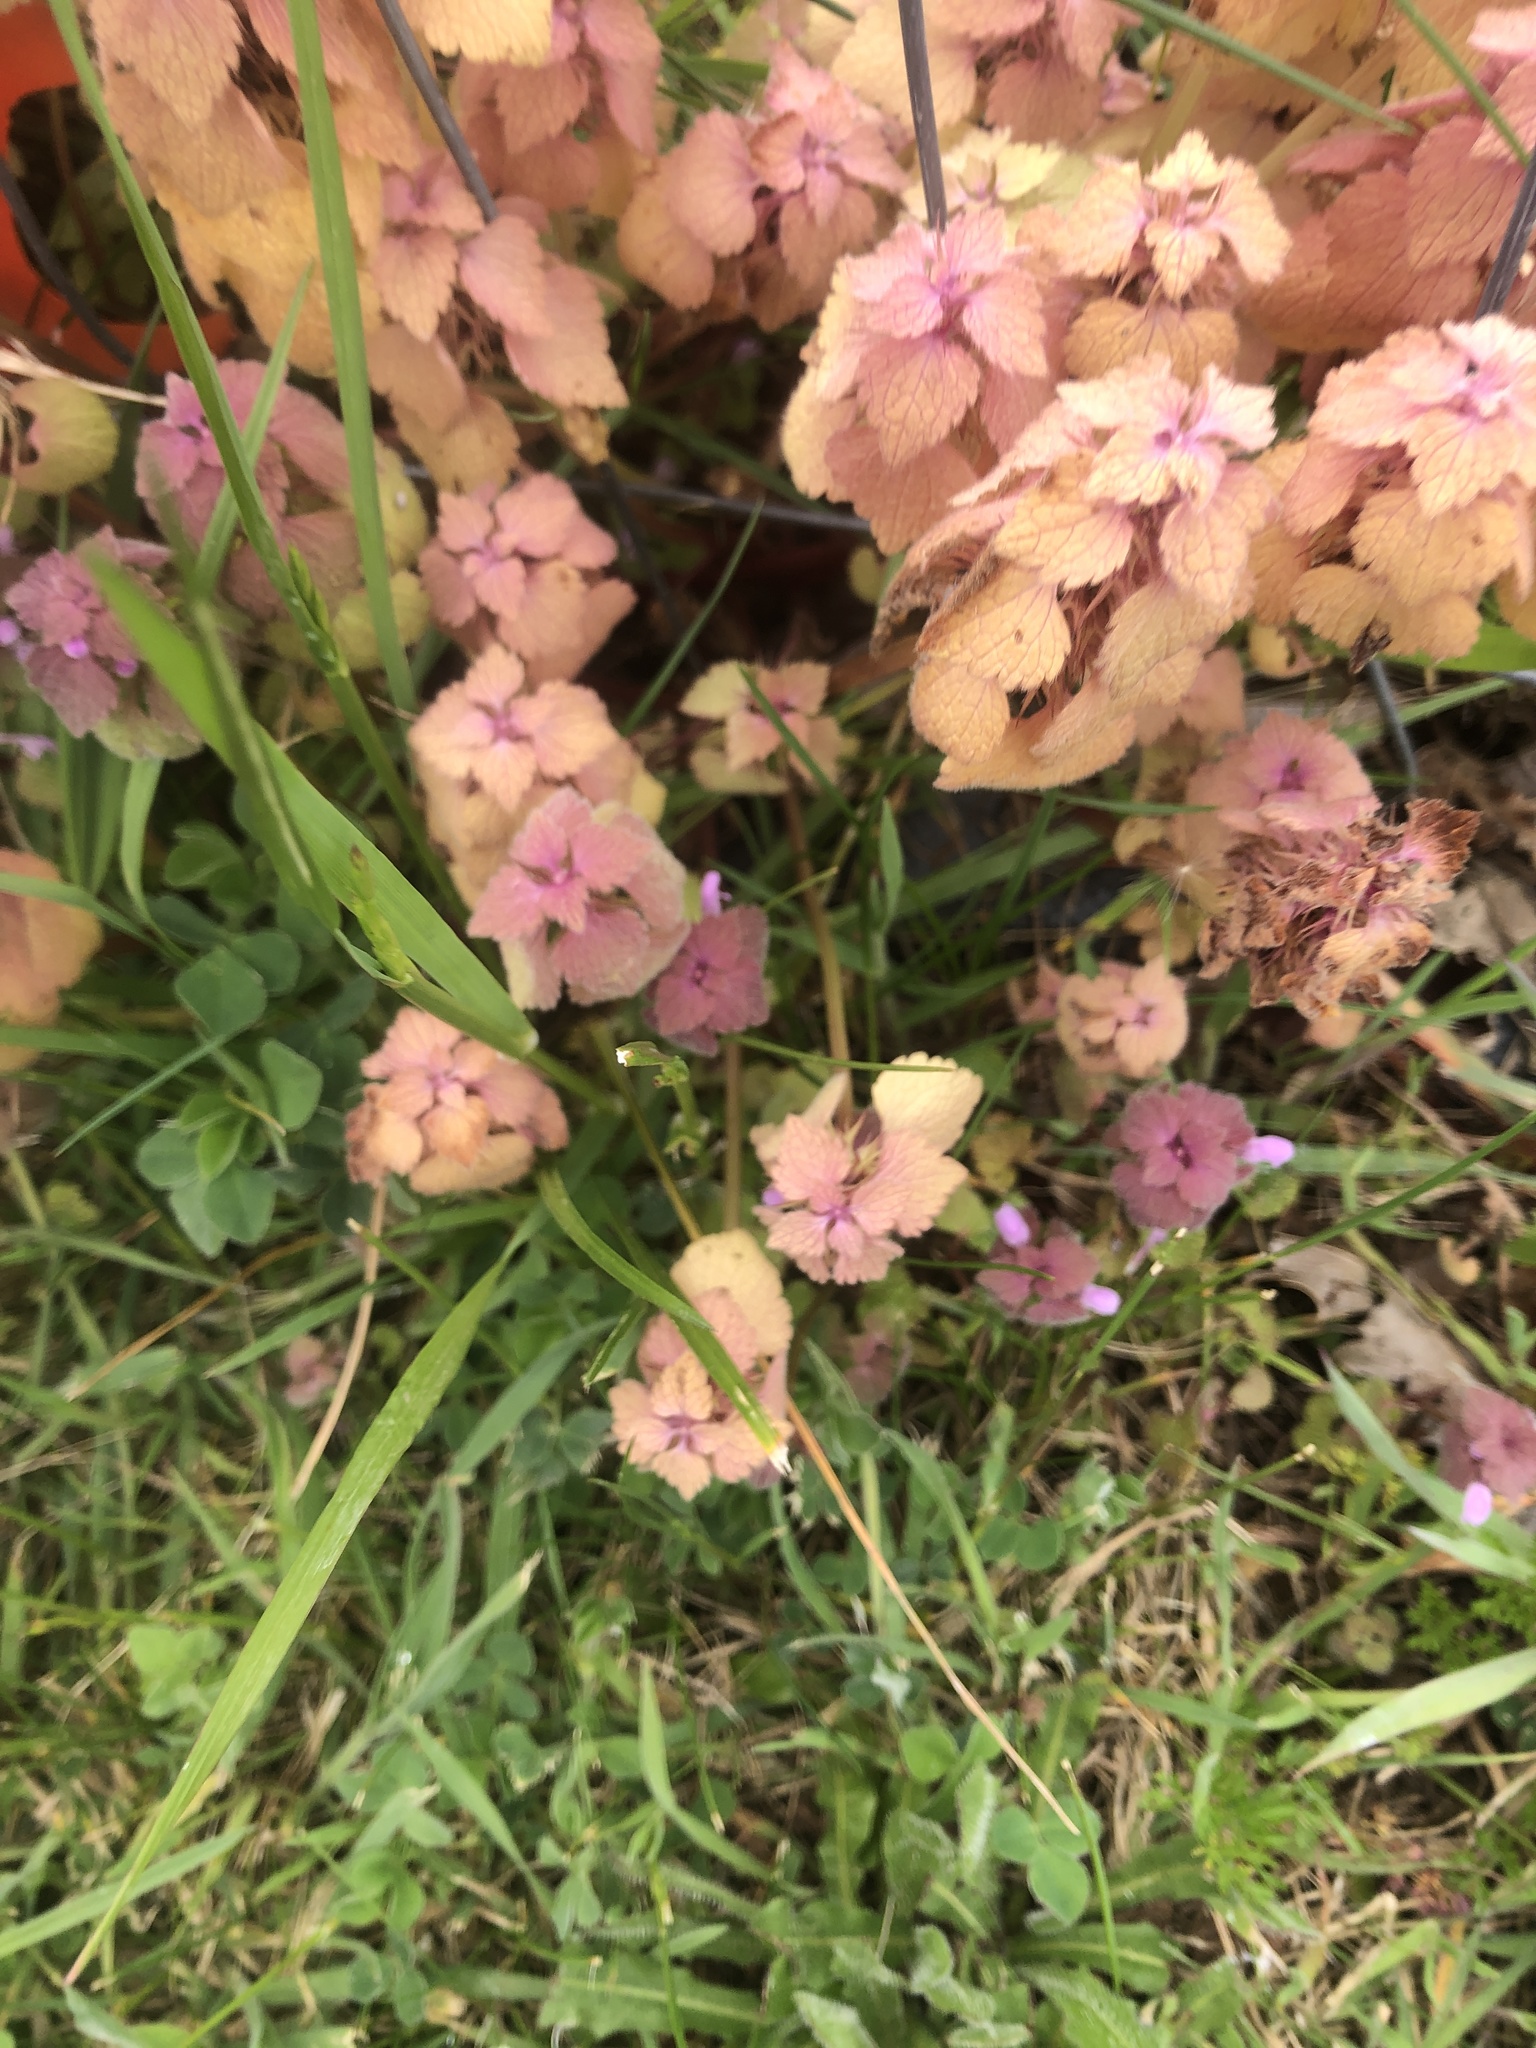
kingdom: Plantae
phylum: Tracheophyta
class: Magnoliopsida
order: Lamiales
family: Lamiaceae
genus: Lamium
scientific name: Lamium purpureum
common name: Red dead-nettle
